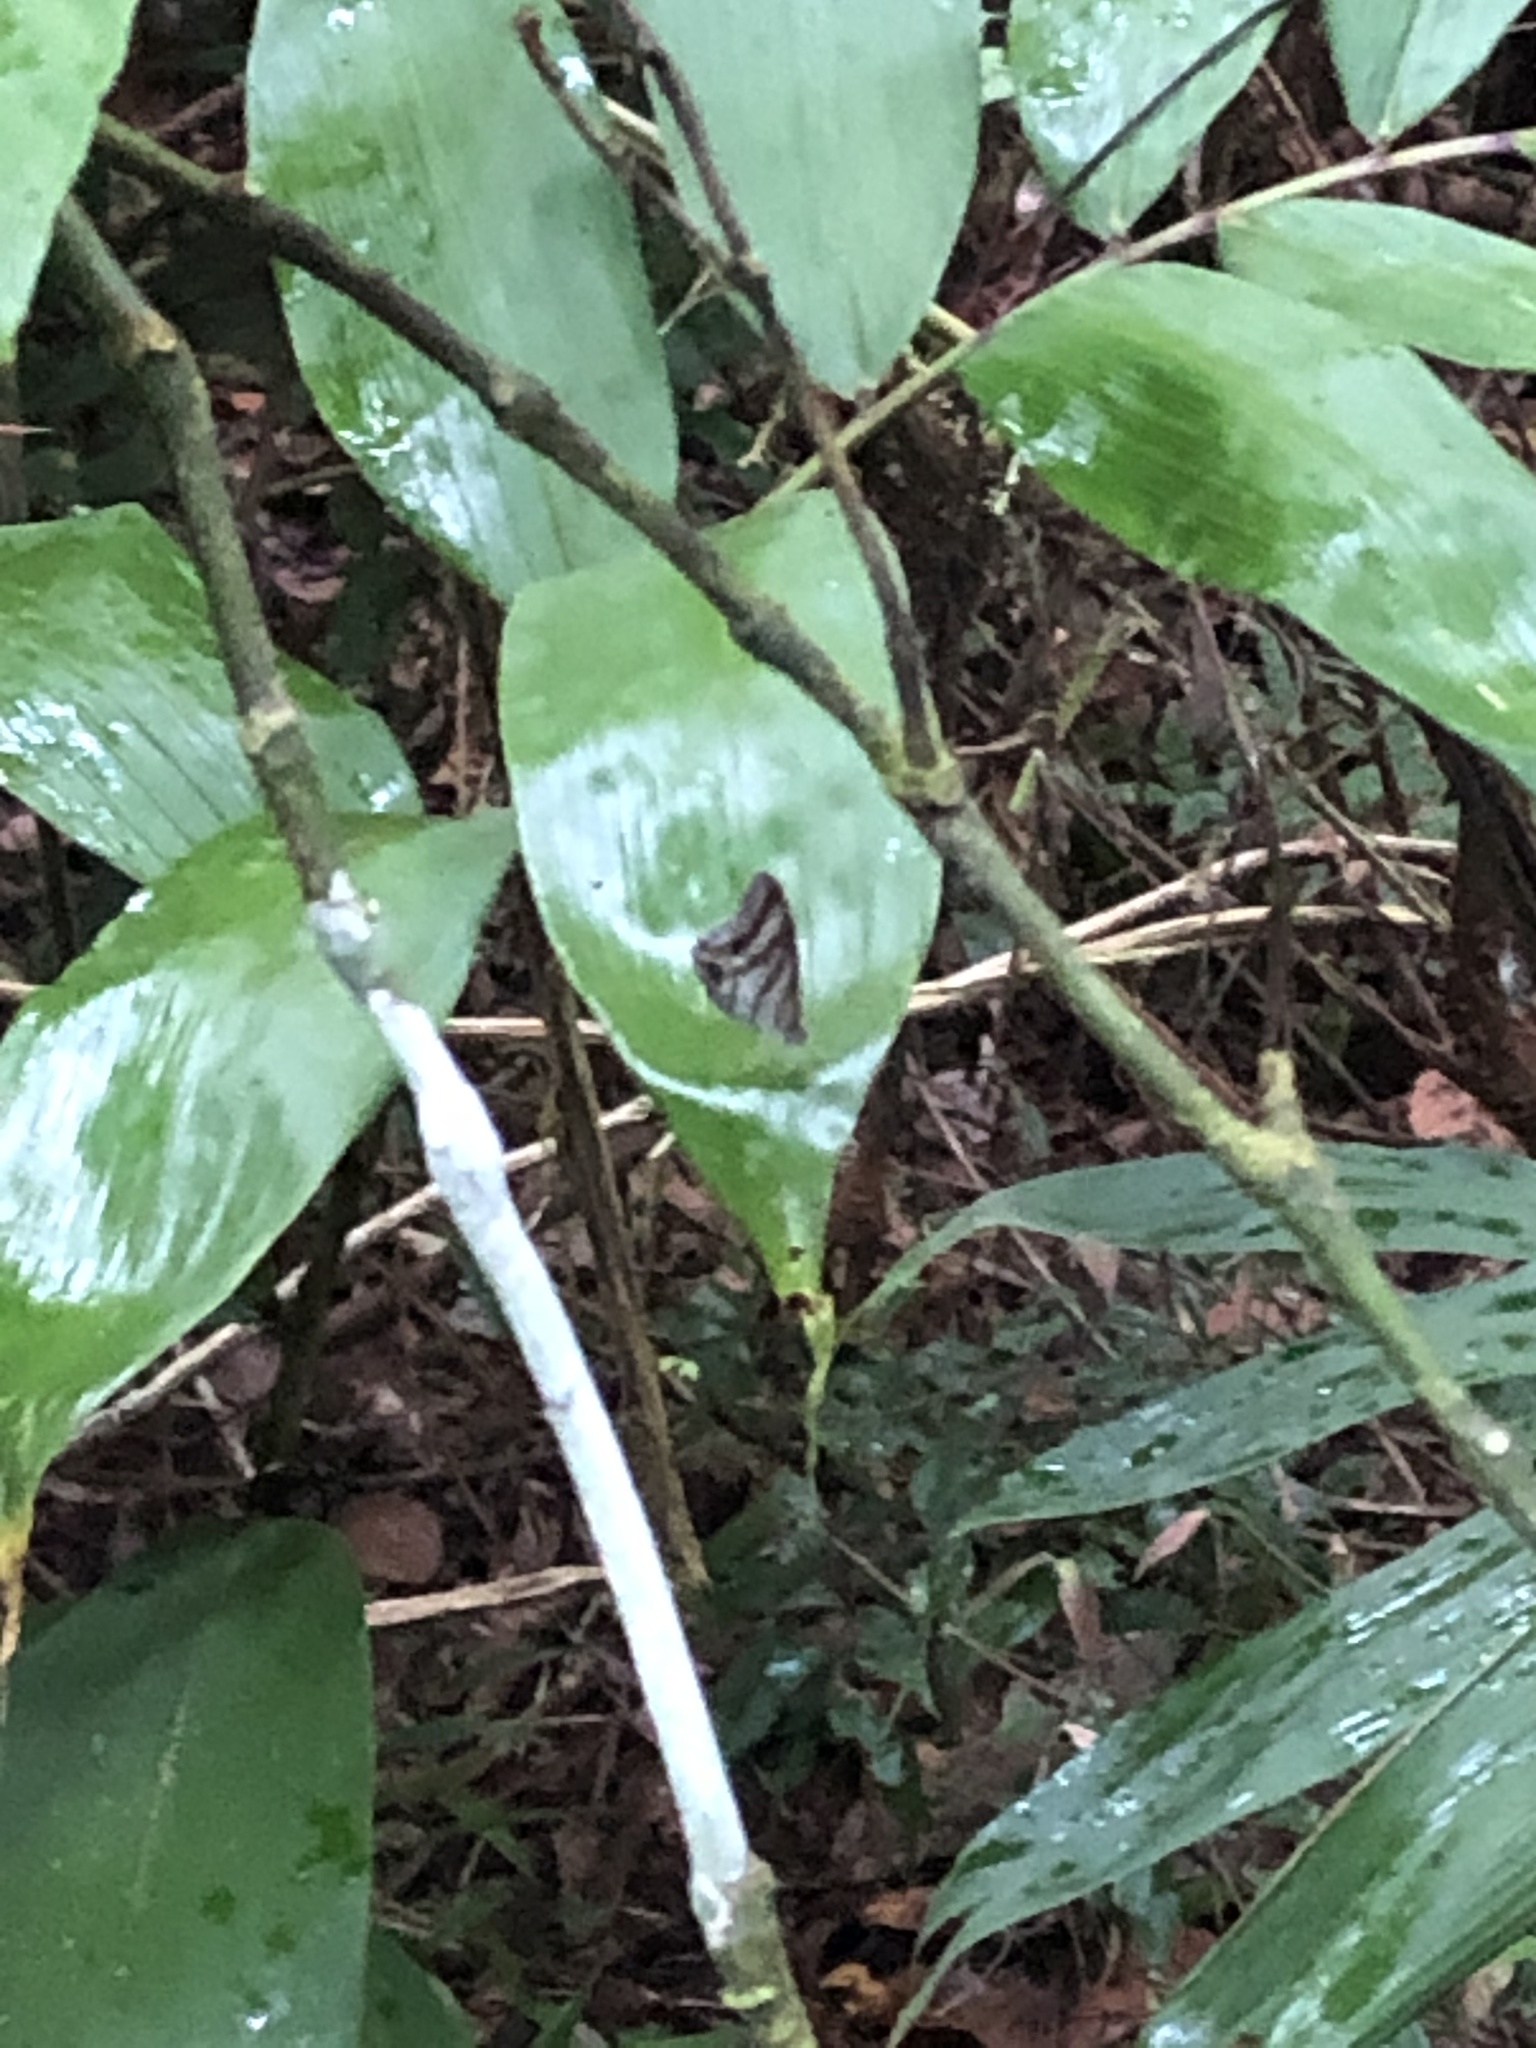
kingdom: Animalia
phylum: Arthropoda
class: Insecta
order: Lepidoptera
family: Nymphalidae
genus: Chloreuptychia
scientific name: Chloreuptychia chloris
